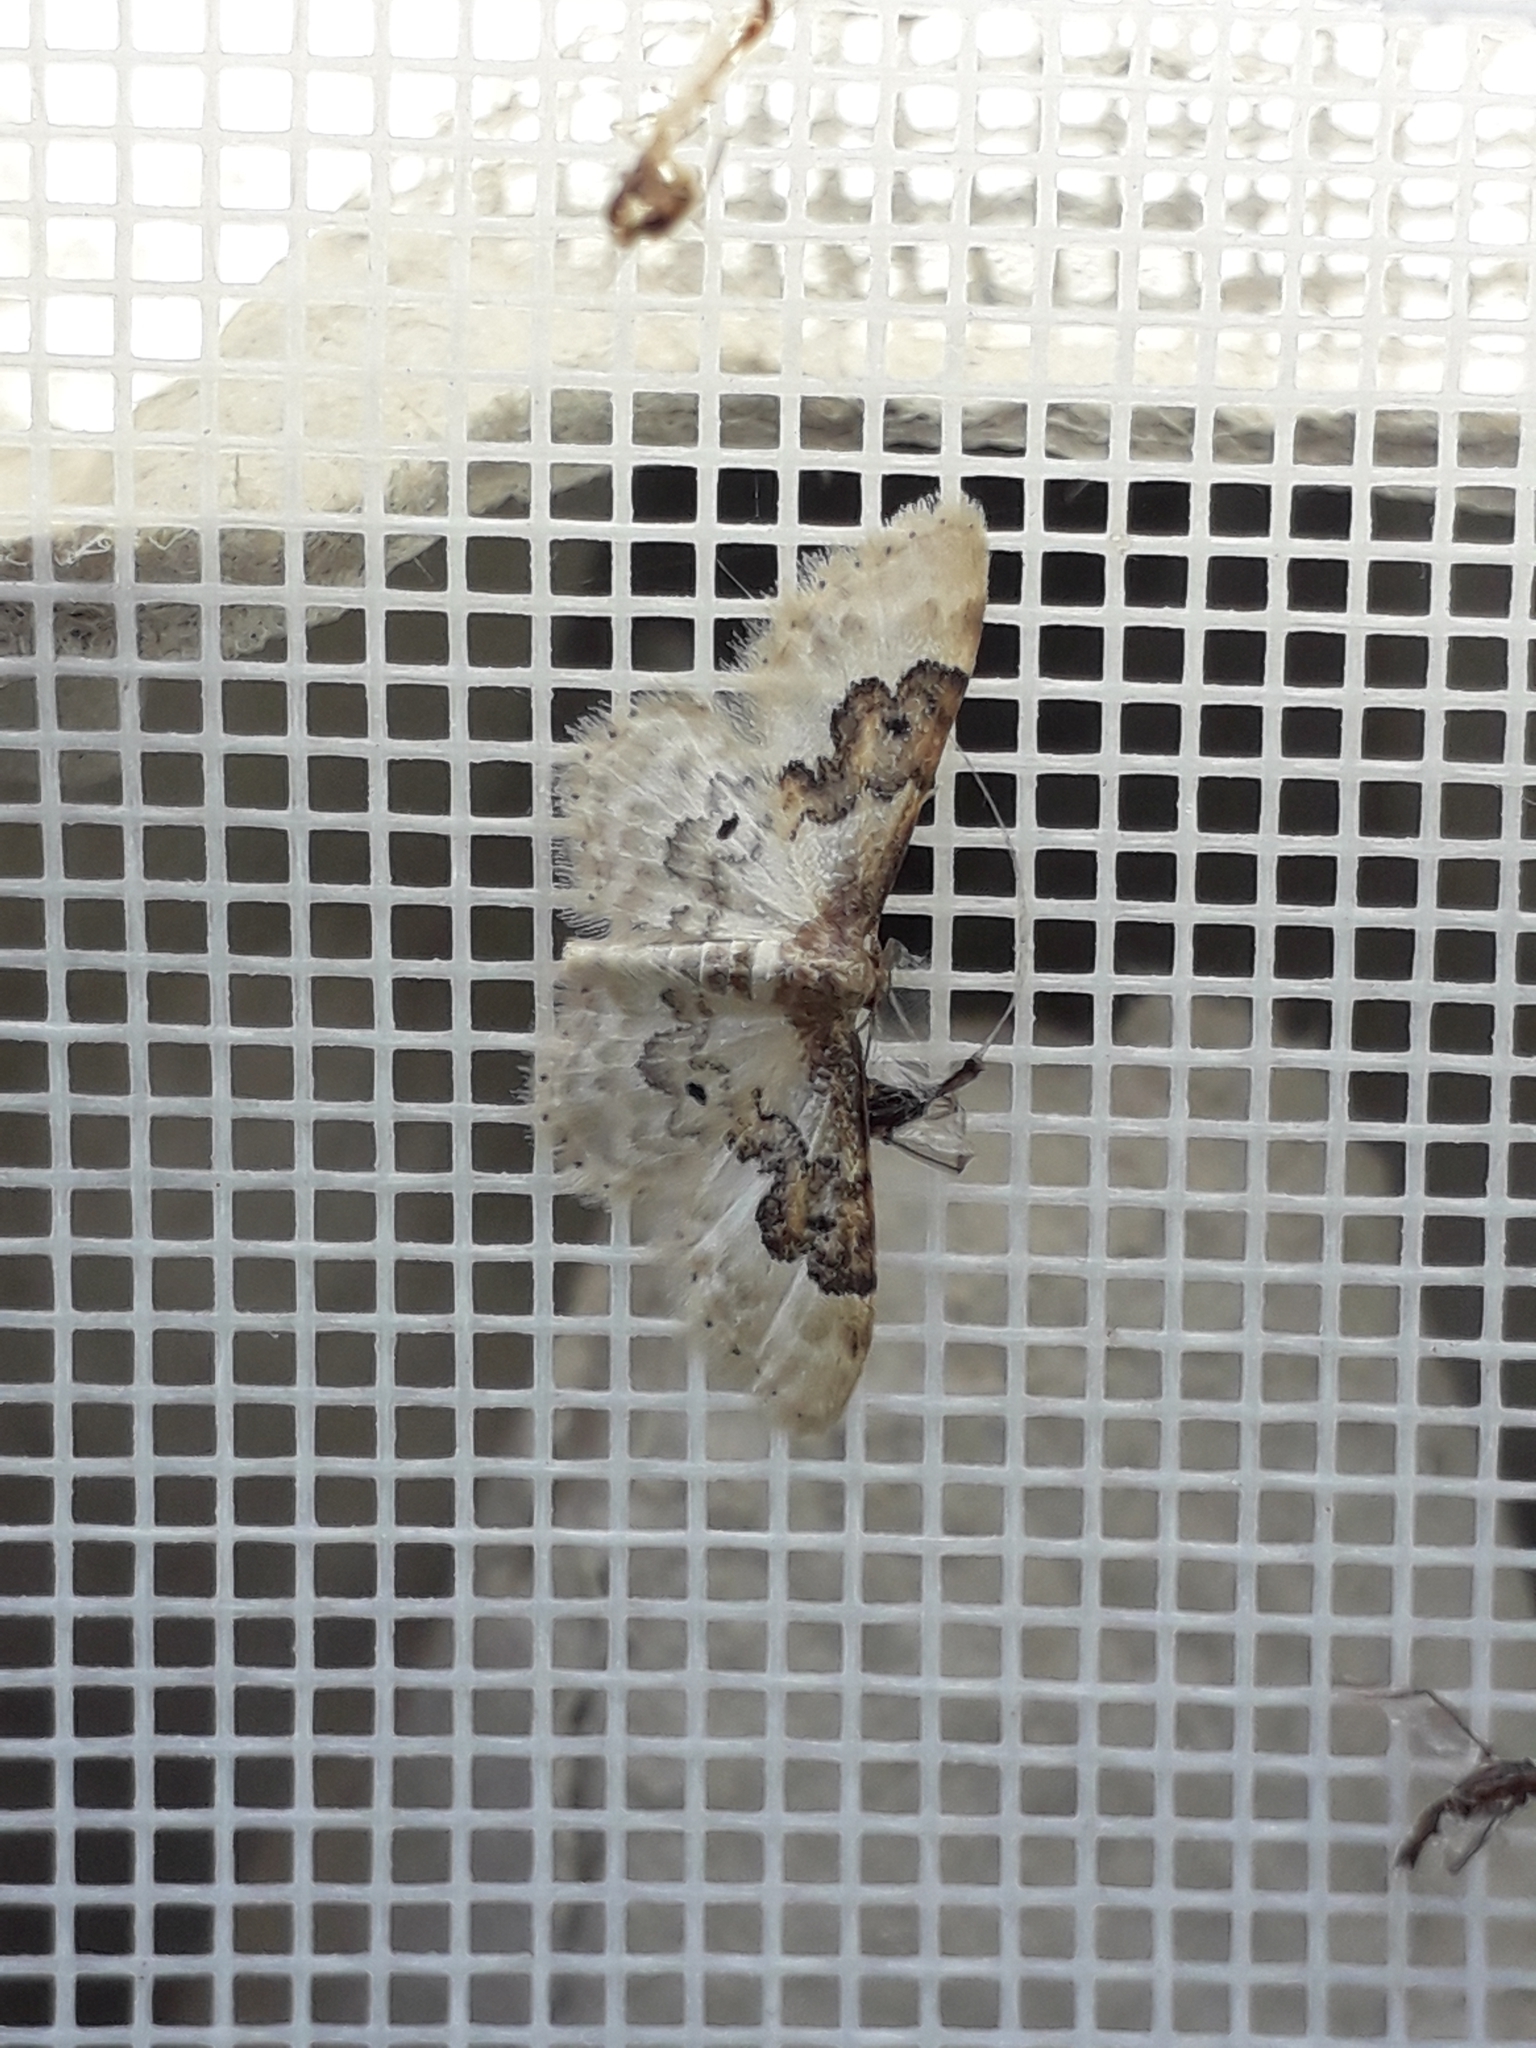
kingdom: Animalia
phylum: Arthropoda
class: Insecta
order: Lepidoptera
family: Geometridae
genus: Idaea
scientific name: Idaea rusticata
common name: Least carpet
